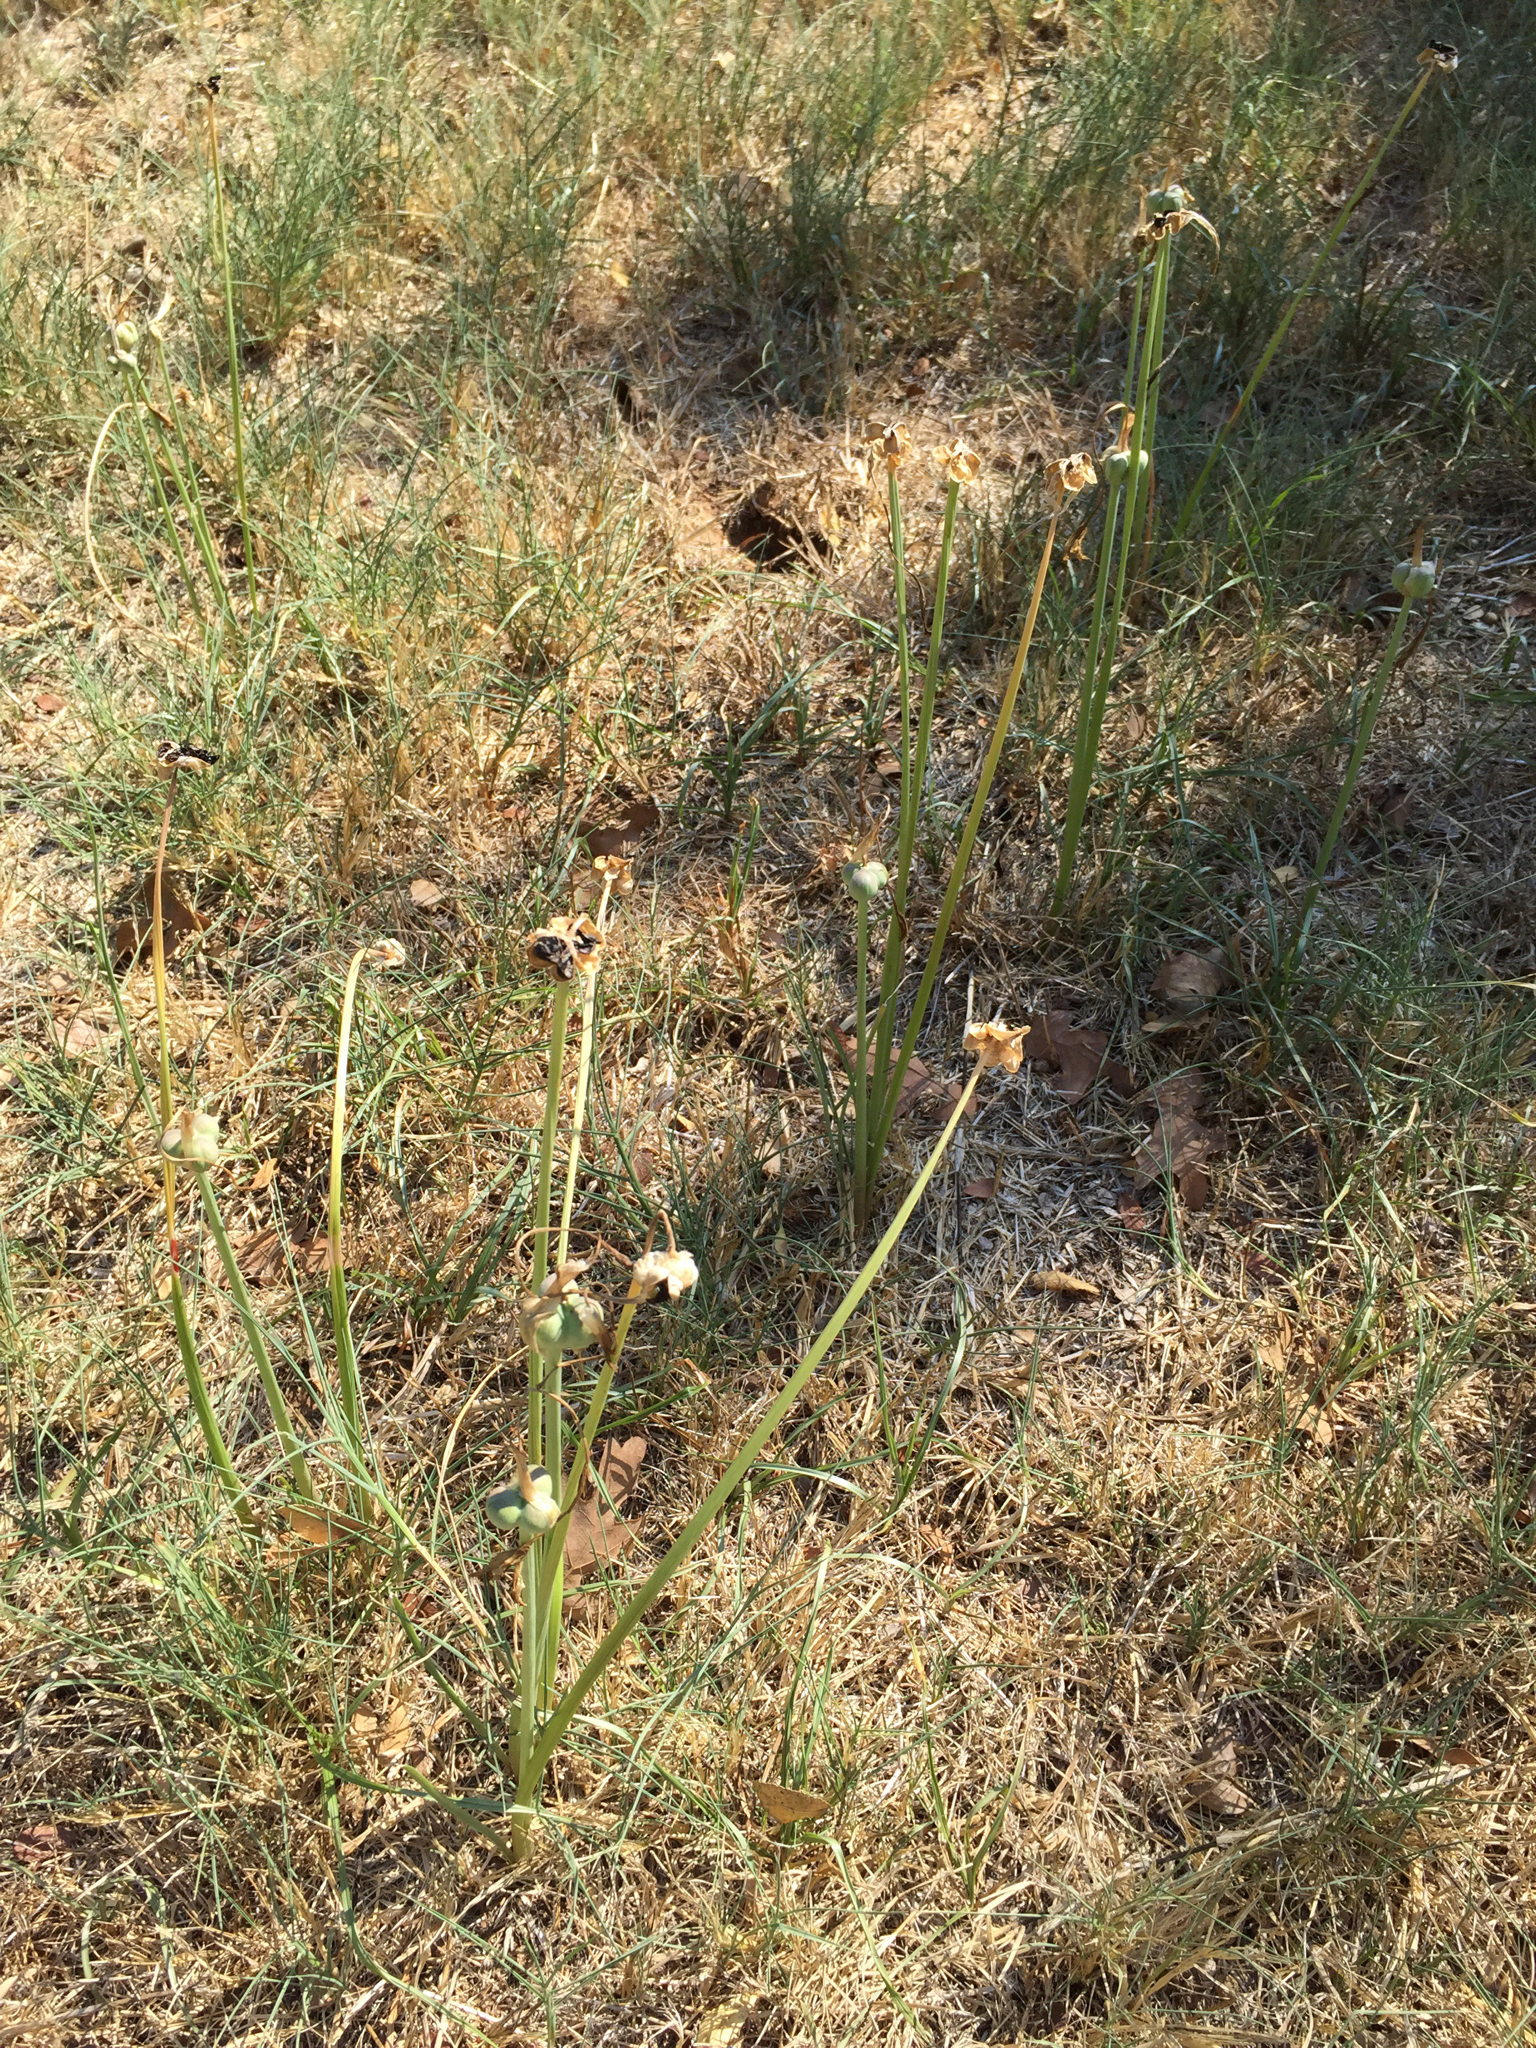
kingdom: Plantae
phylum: Tracheophyta
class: Liliopsida
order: Asparagales
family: Amaryllidaceae
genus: Zephyranthes
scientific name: Zephyranthes chlorosolen
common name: Evening rain-lily
